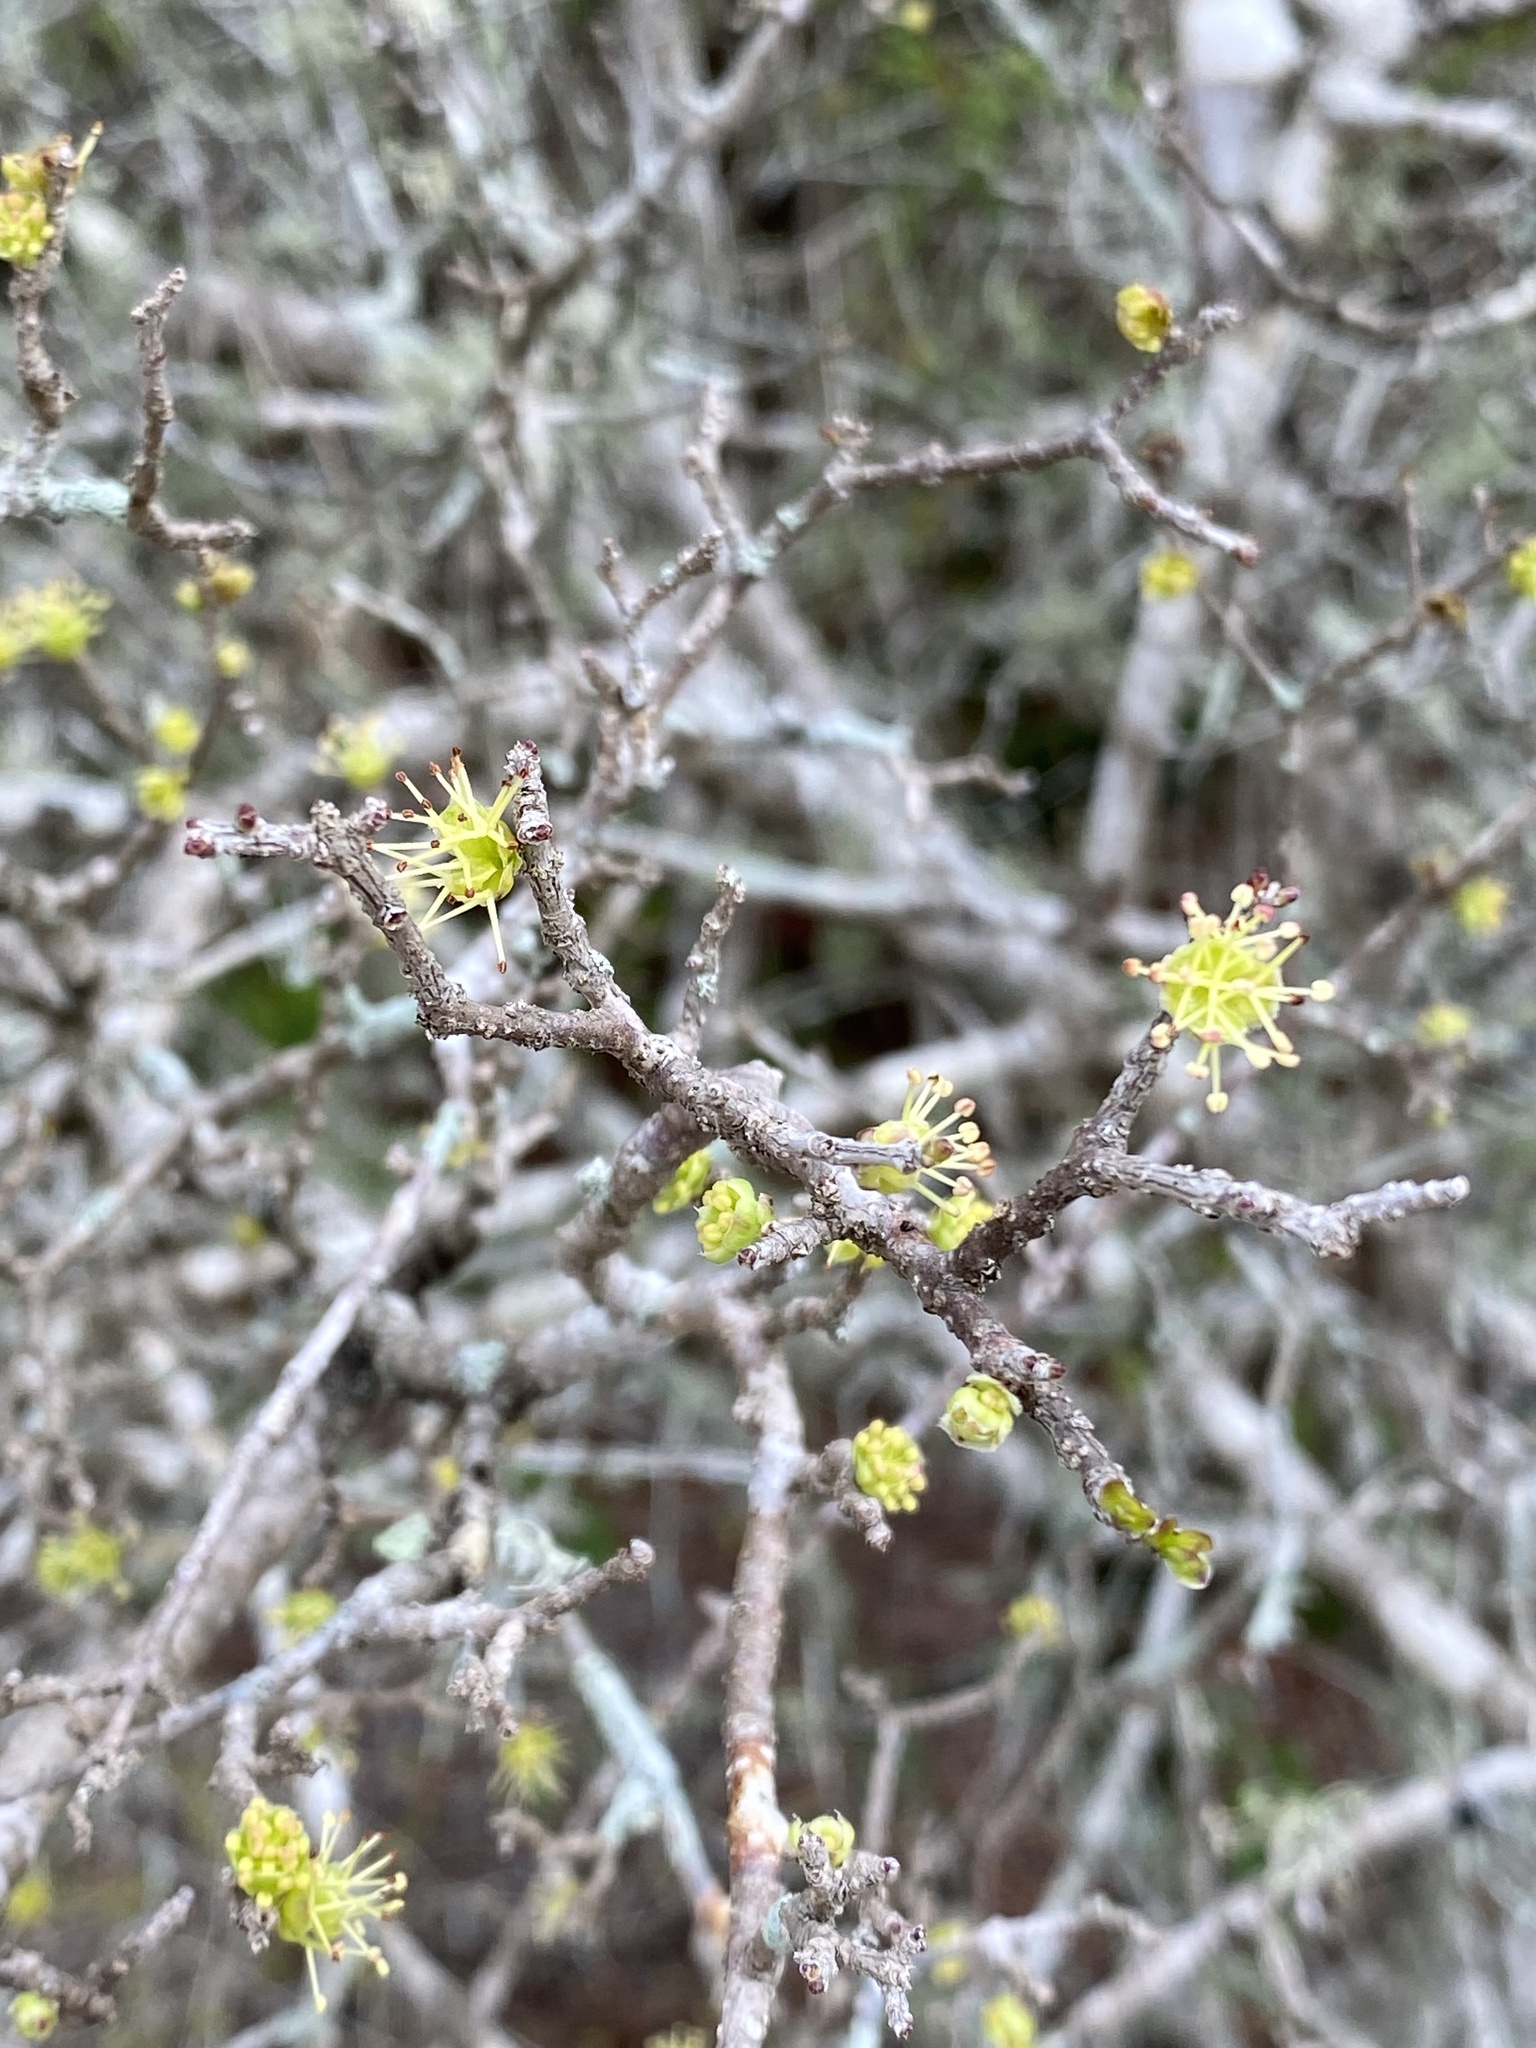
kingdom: Plantae
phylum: Tracheophyta
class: Magnoliopsida
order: Lamiales
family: Oleaceae
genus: Forestiera
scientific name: Forestiera segregata
